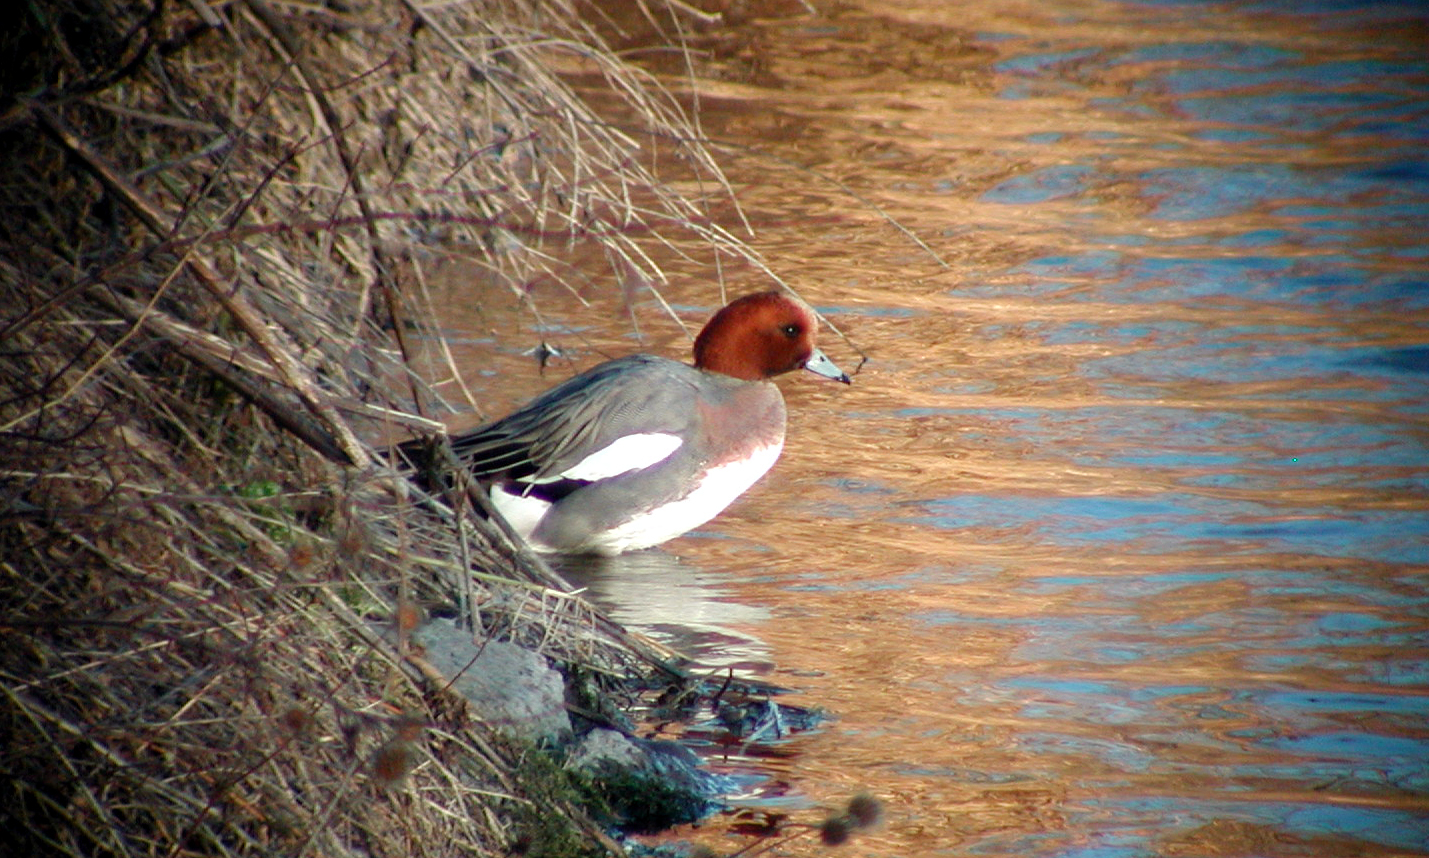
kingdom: Animalia
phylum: Chordata
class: Aves
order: Anseriformes
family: Anatidae
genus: Mareca
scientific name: Mareca penelope
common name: Eurasian wigeon
